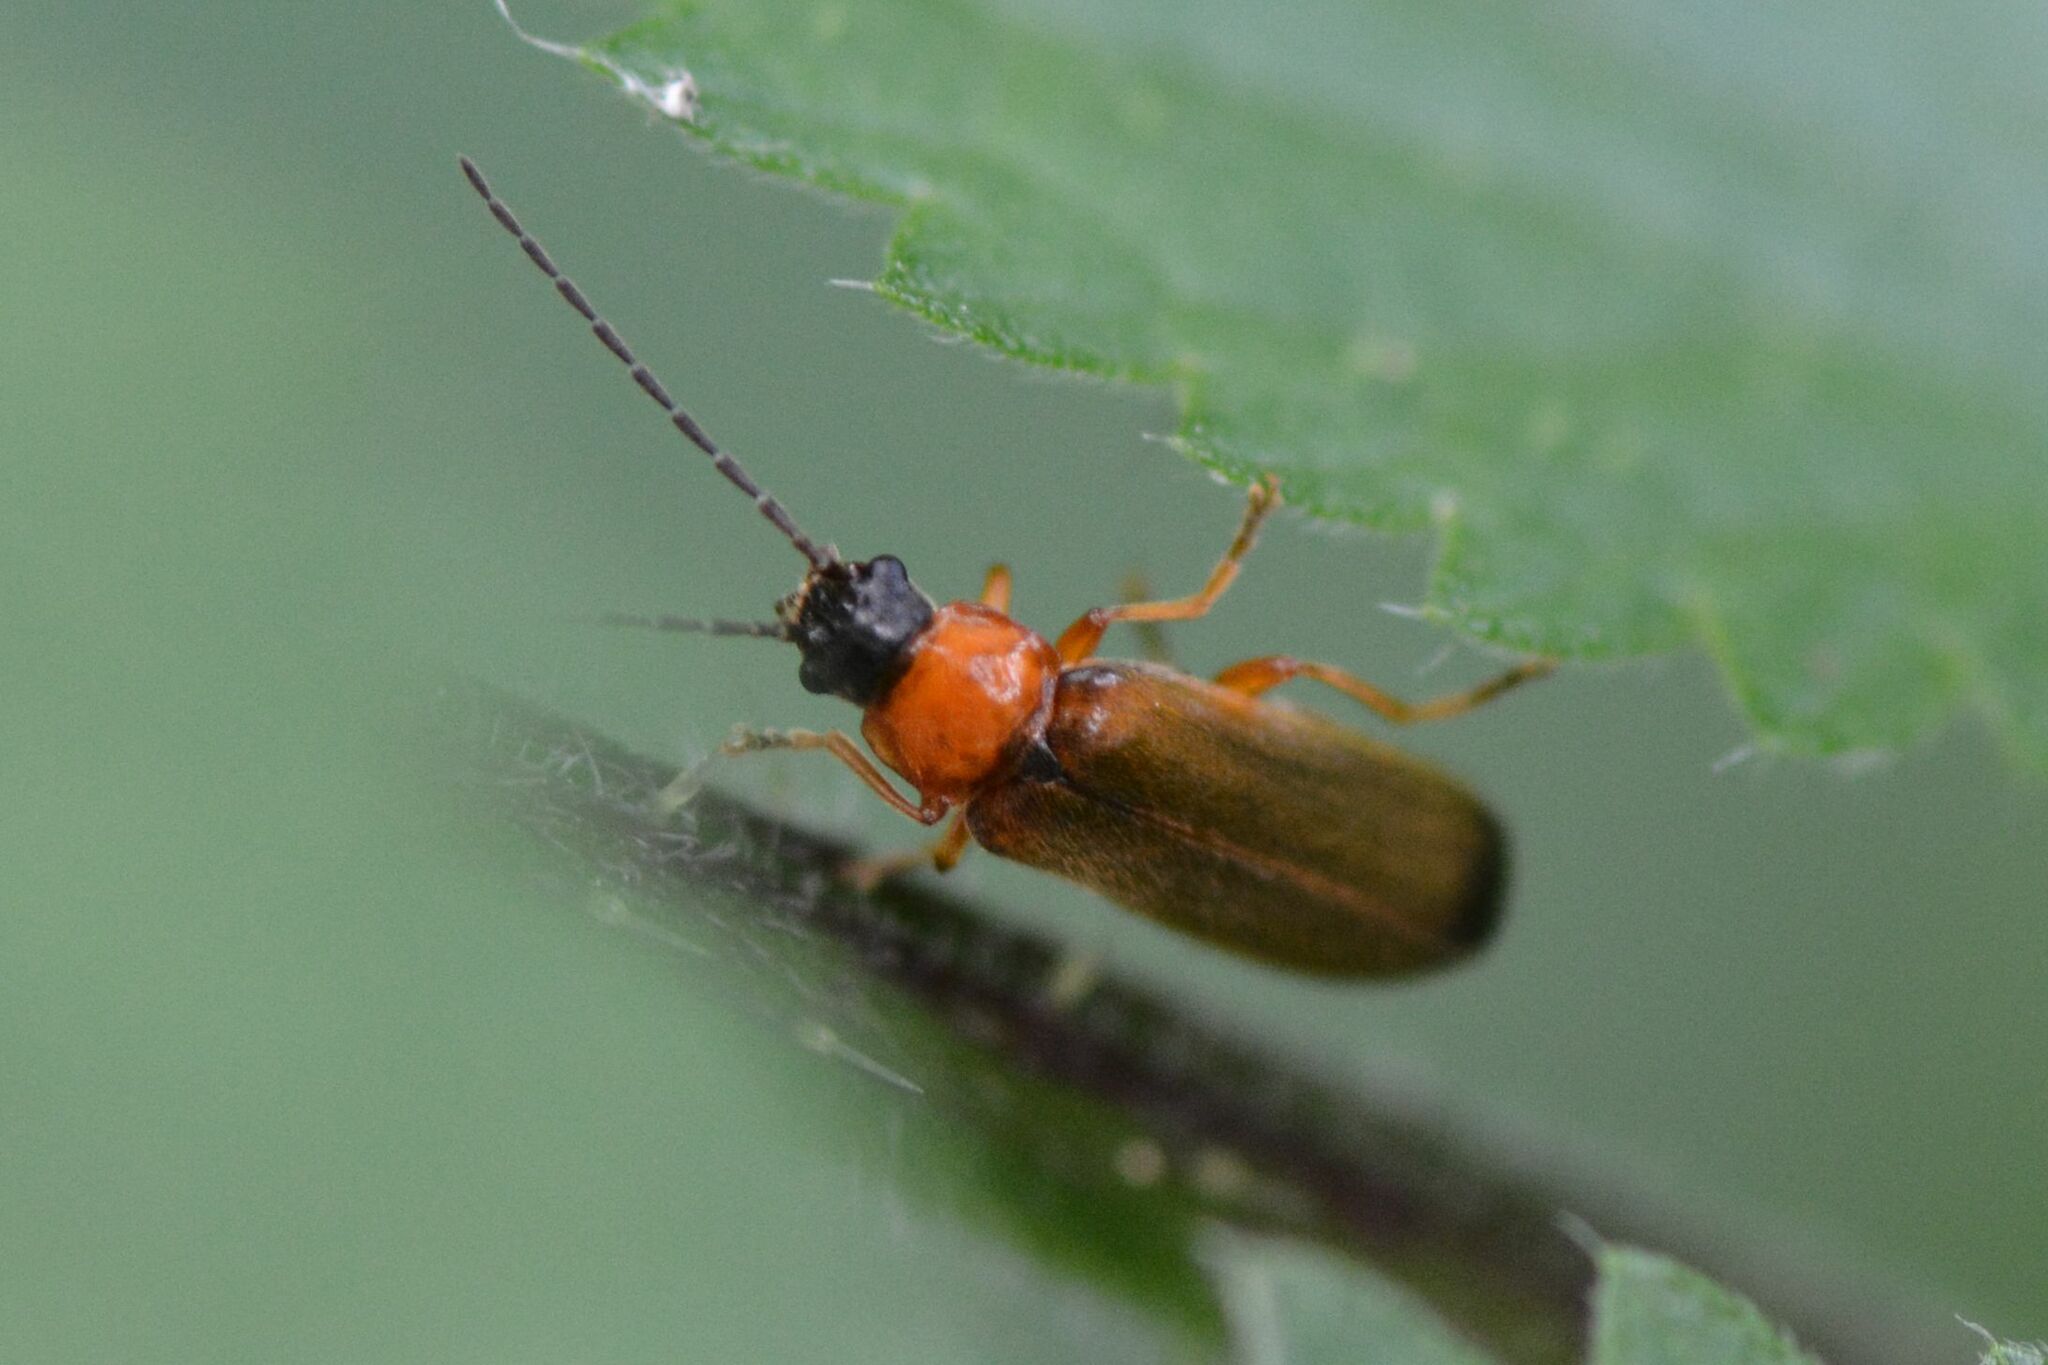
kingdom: Animalia
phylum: Arthropoda
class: Insecta
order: Coleoptera
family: Cantharidae
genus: Rhagonycha
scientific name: Rhagonycha lutea
